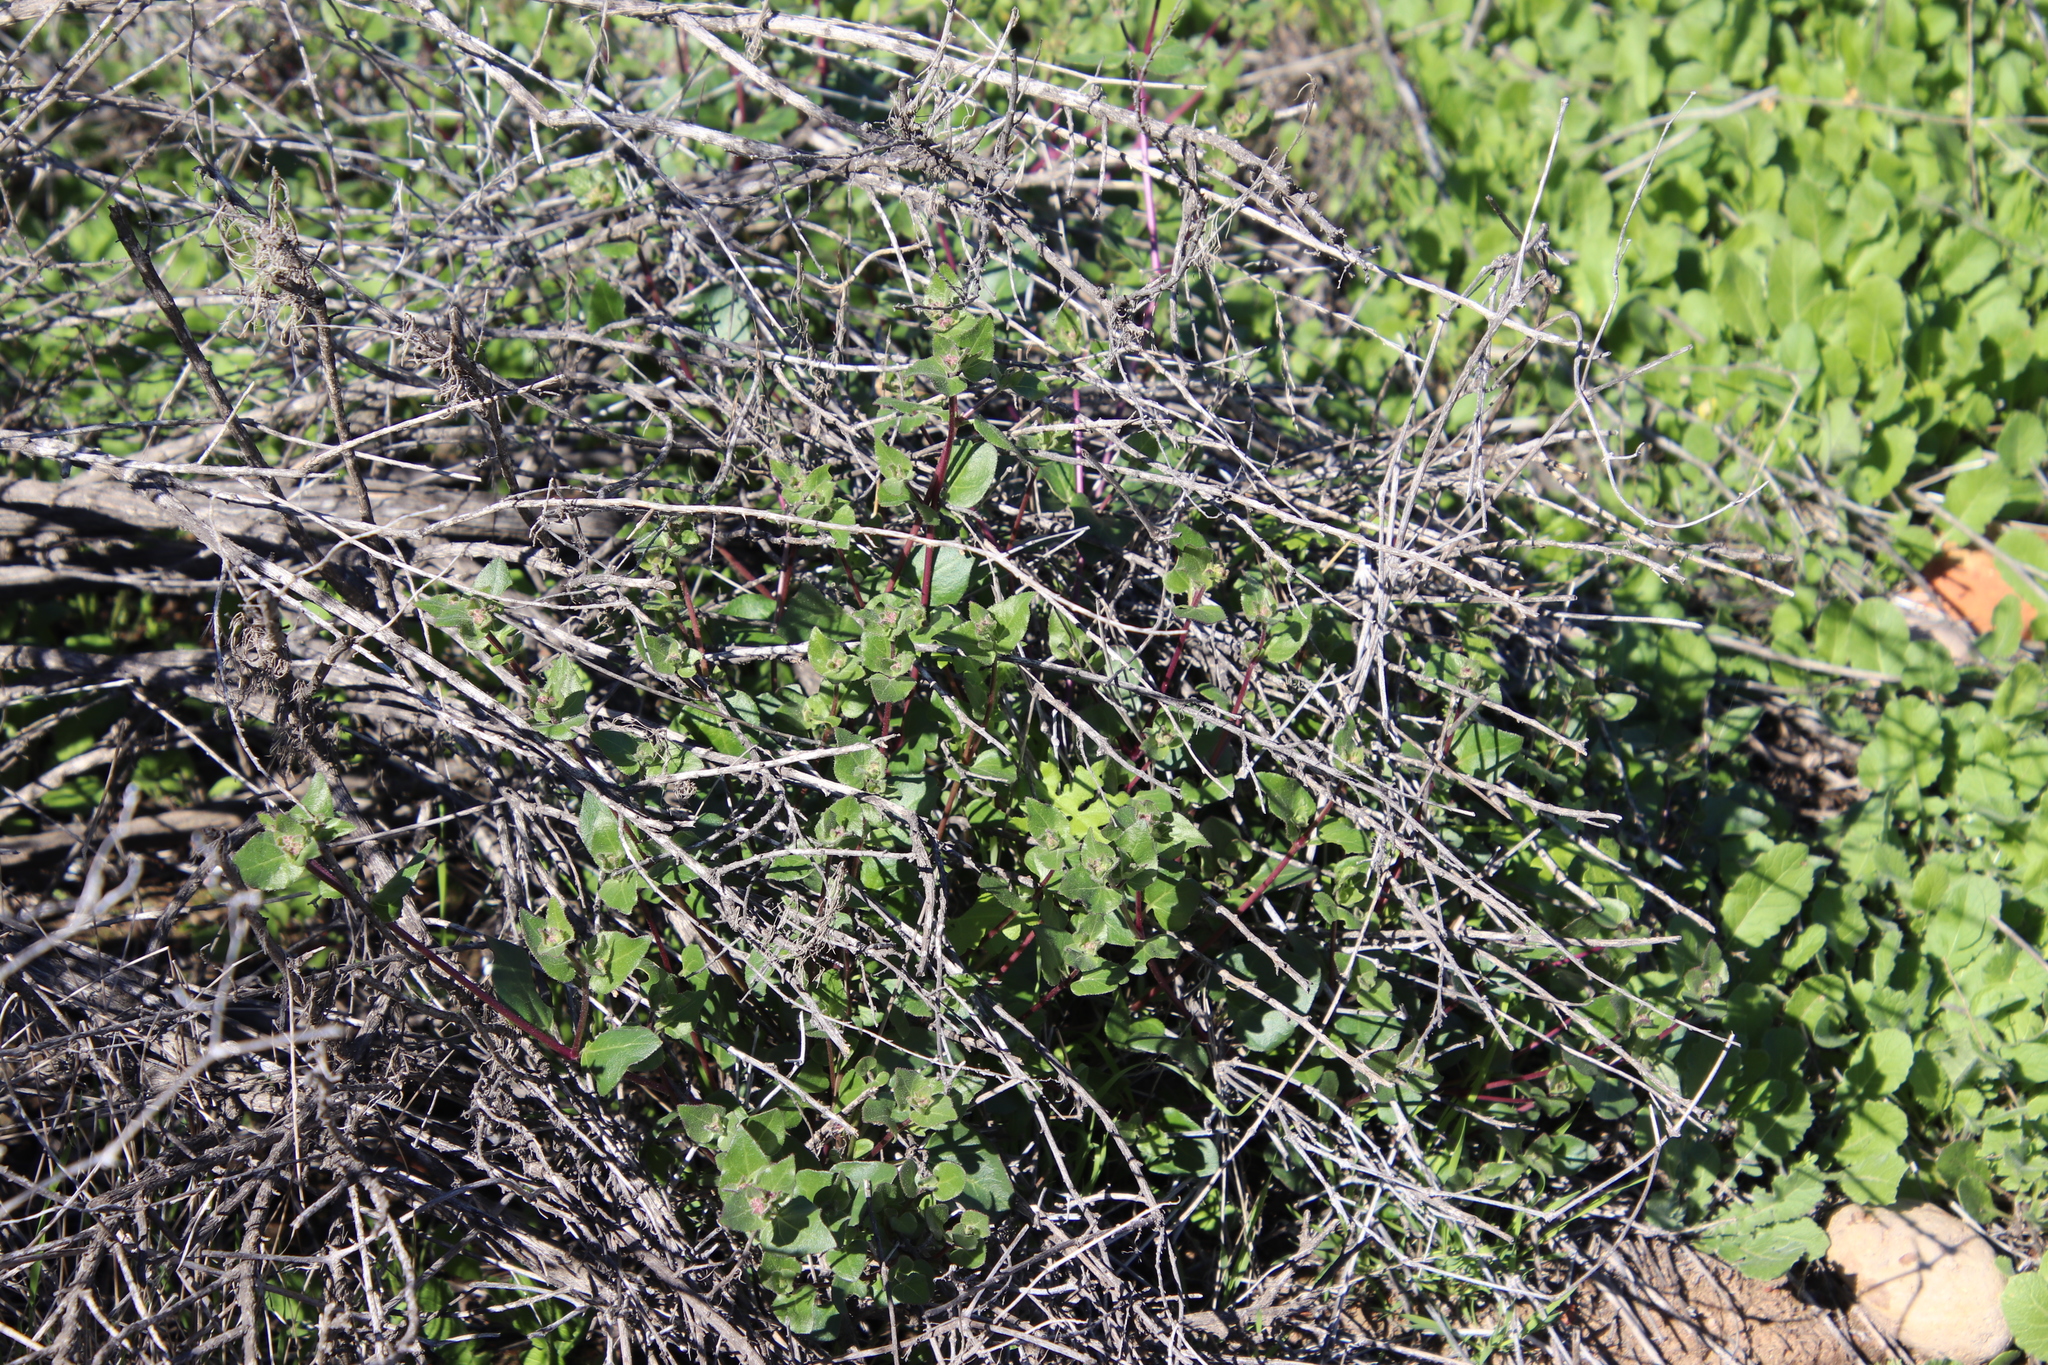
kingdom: Plantae
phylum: Tracheophyta
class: Magnoliopsida
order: Caryophyllales
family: Nyctaginaceae
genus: Mirabilis
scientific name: Mirabilis laevis
